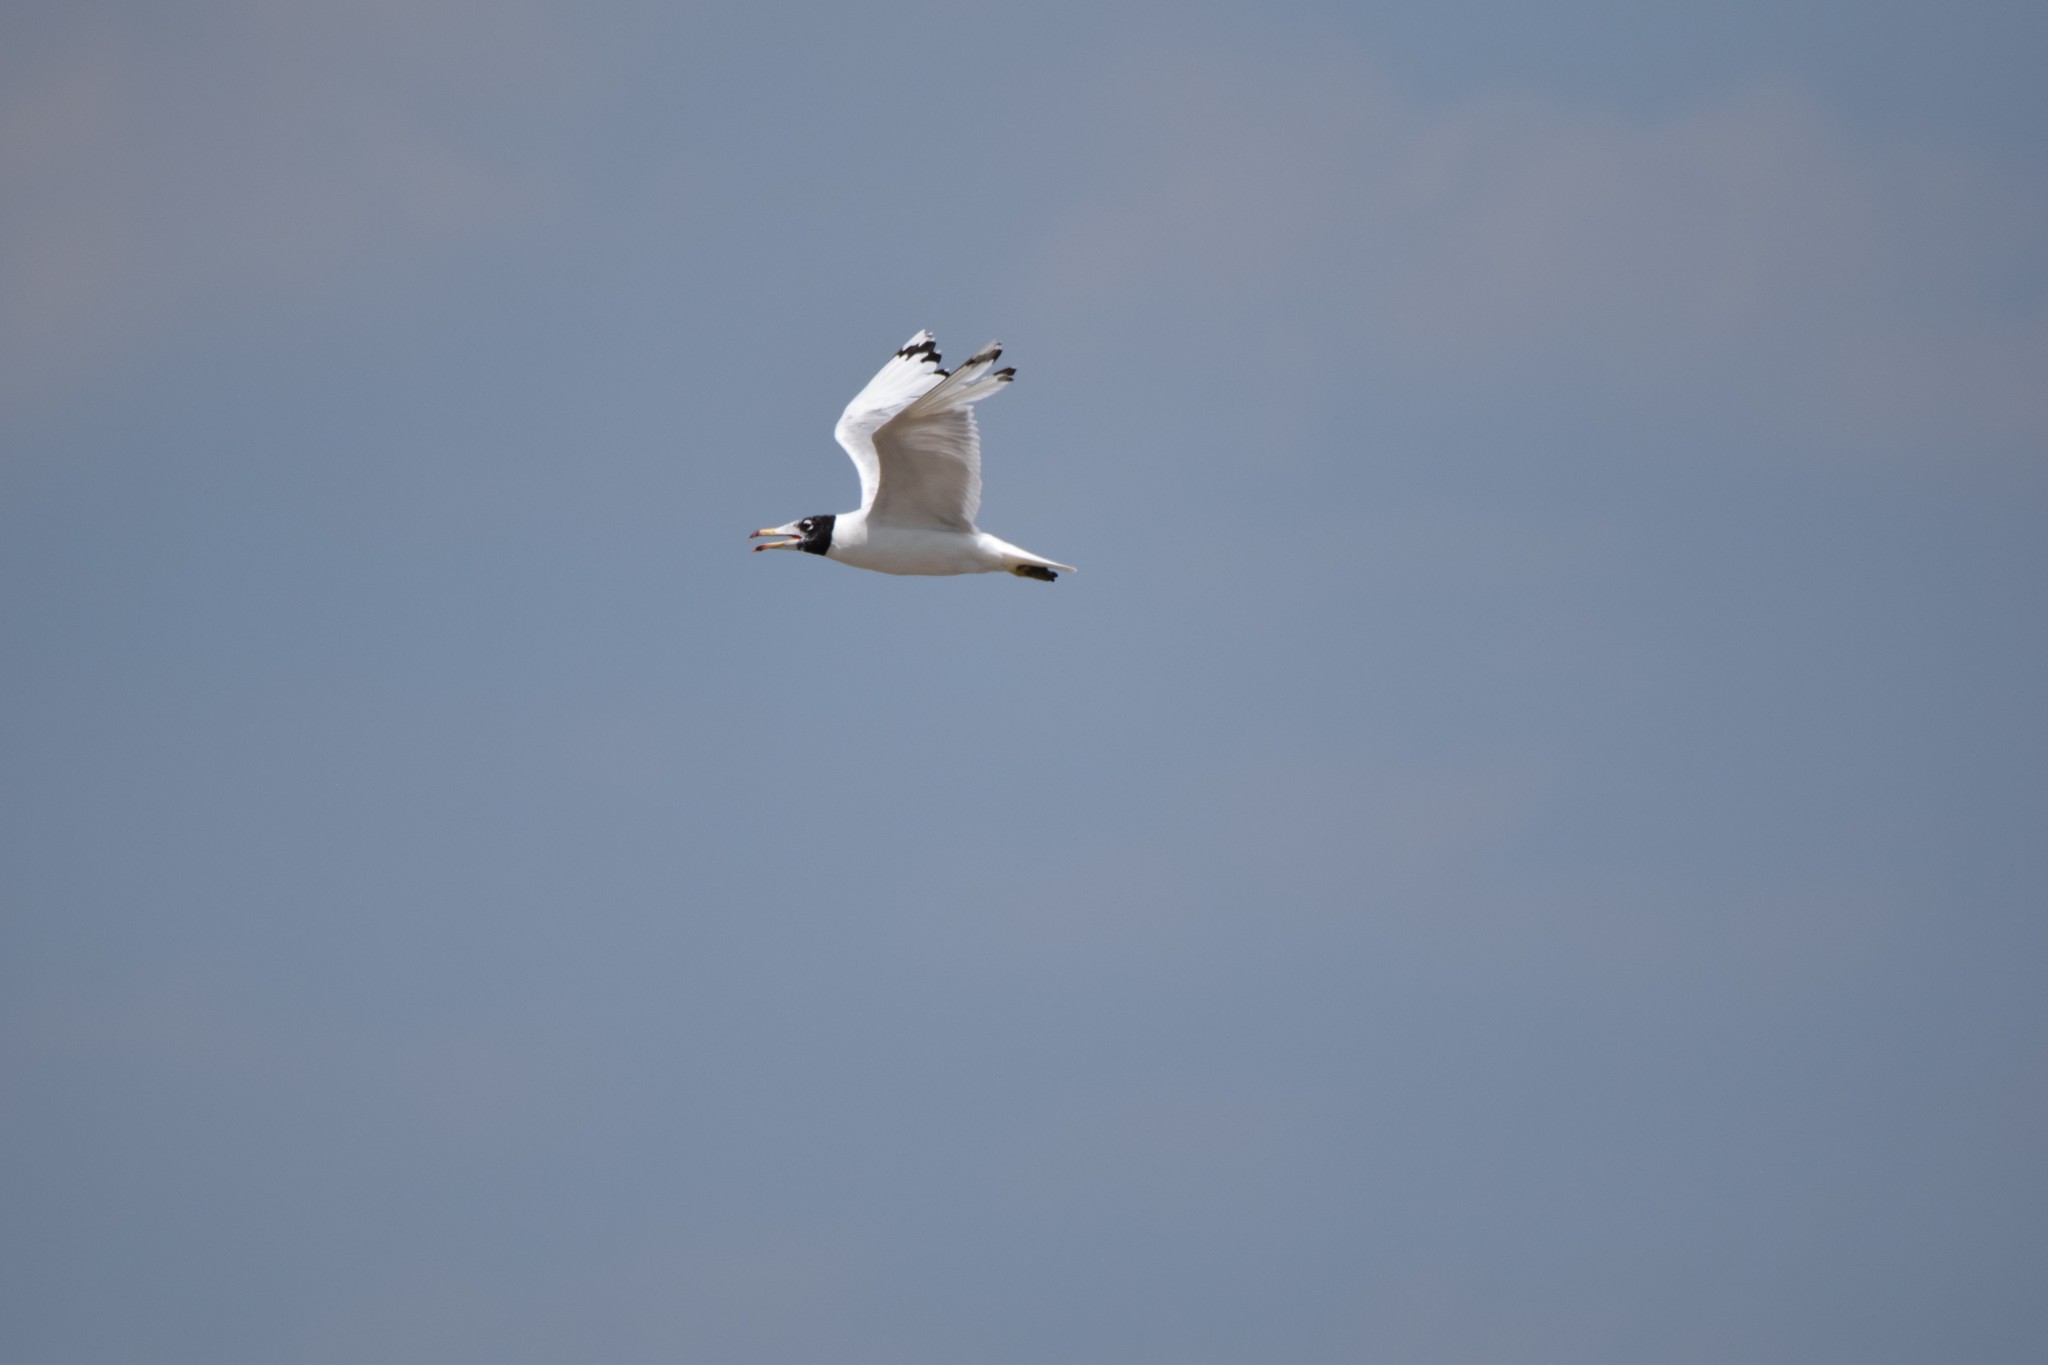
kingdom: Animalia
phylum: Chordata
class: Aves
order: Charadriiformes
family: Laridae
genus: Ichthyaetus
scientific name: Ichthyaetus ichthyaetus
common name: Pallas's gull
